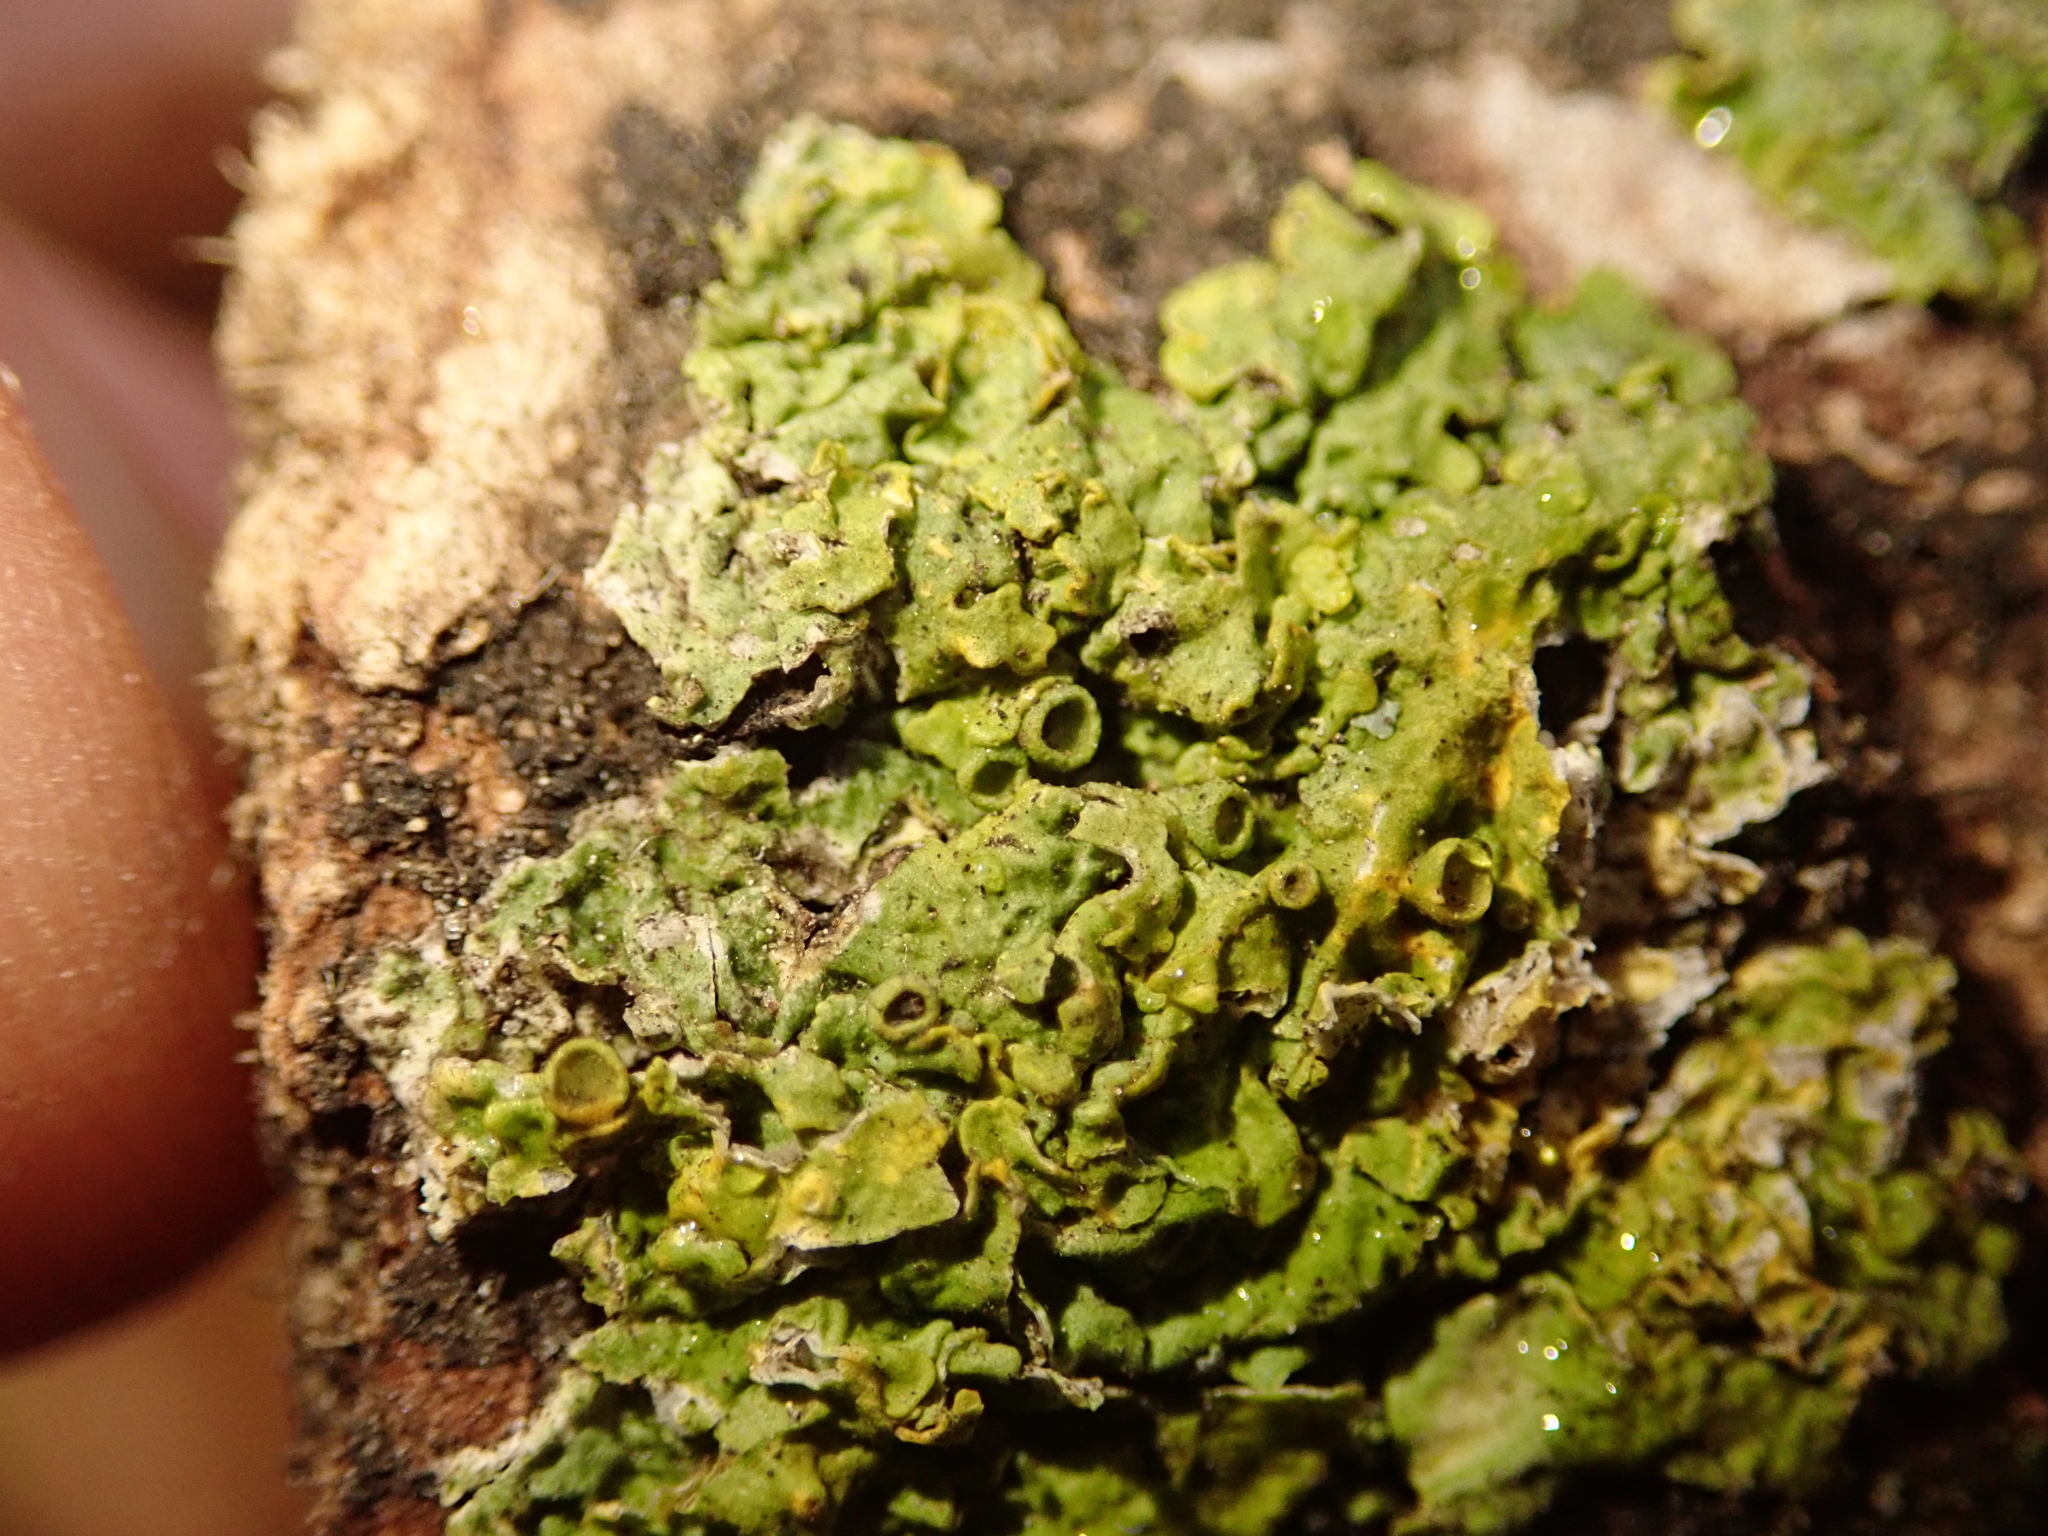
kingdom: Fungi
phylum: Ascomycota
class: Lecanoromycetes
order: Teloschistales
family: Teloschistaceae
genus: Xanthoria
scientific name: Xanthoria parietina
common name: Common orange lichen
